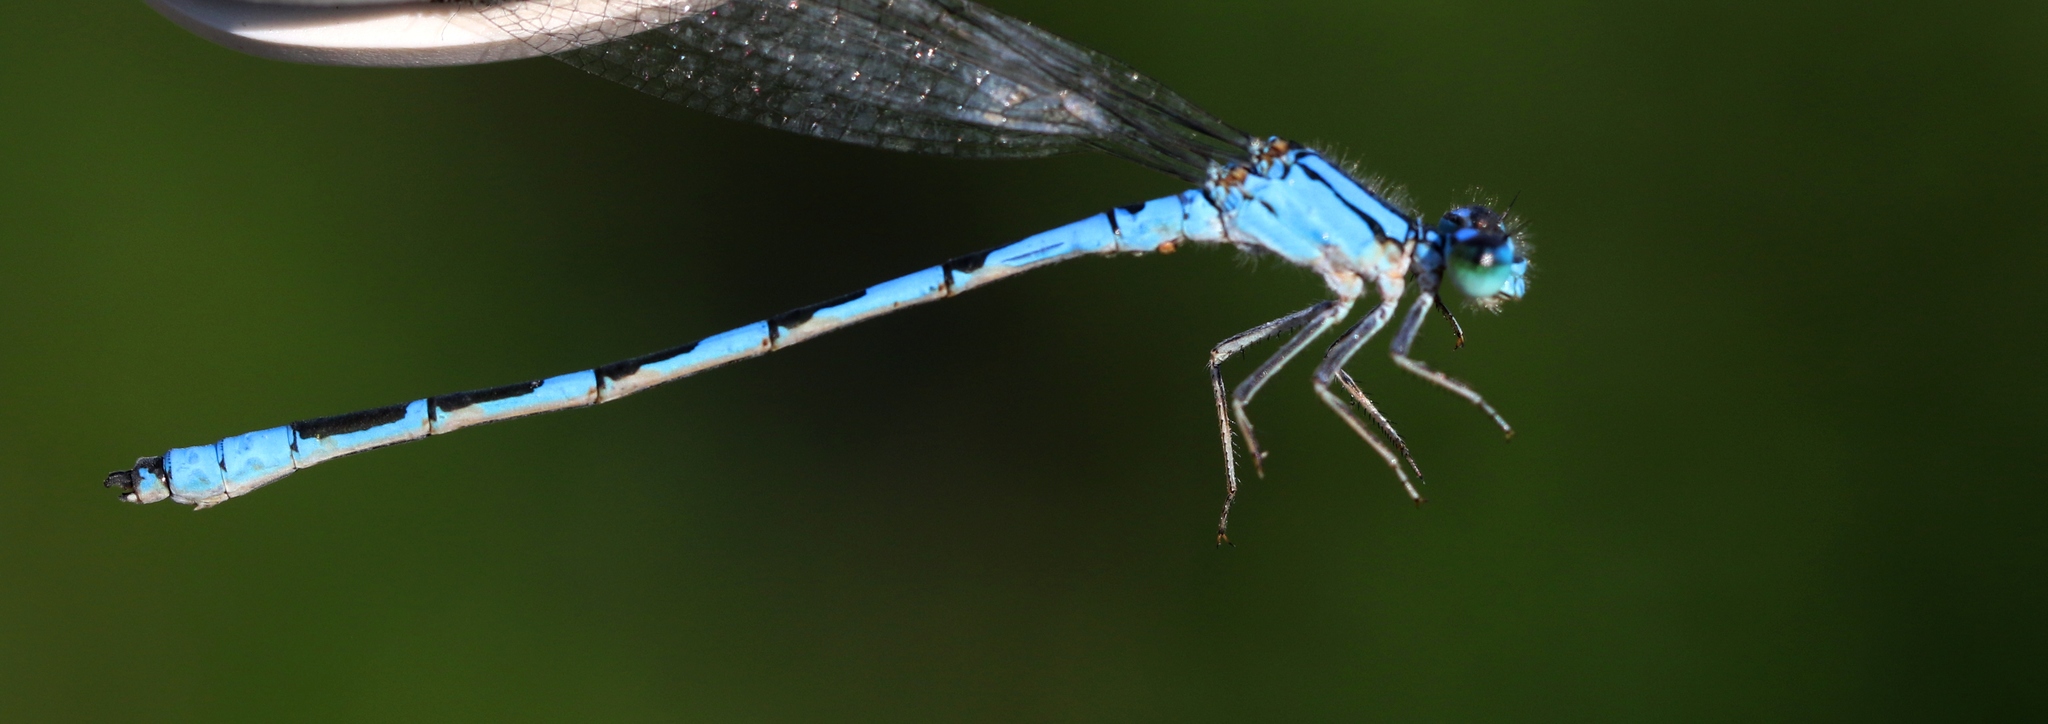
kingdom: Animalia
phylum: Arthropoda
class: Insecta
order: Odonata
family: Coenagrionidae
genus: Enallagma
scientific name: Enallagma anna
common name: River bluet
